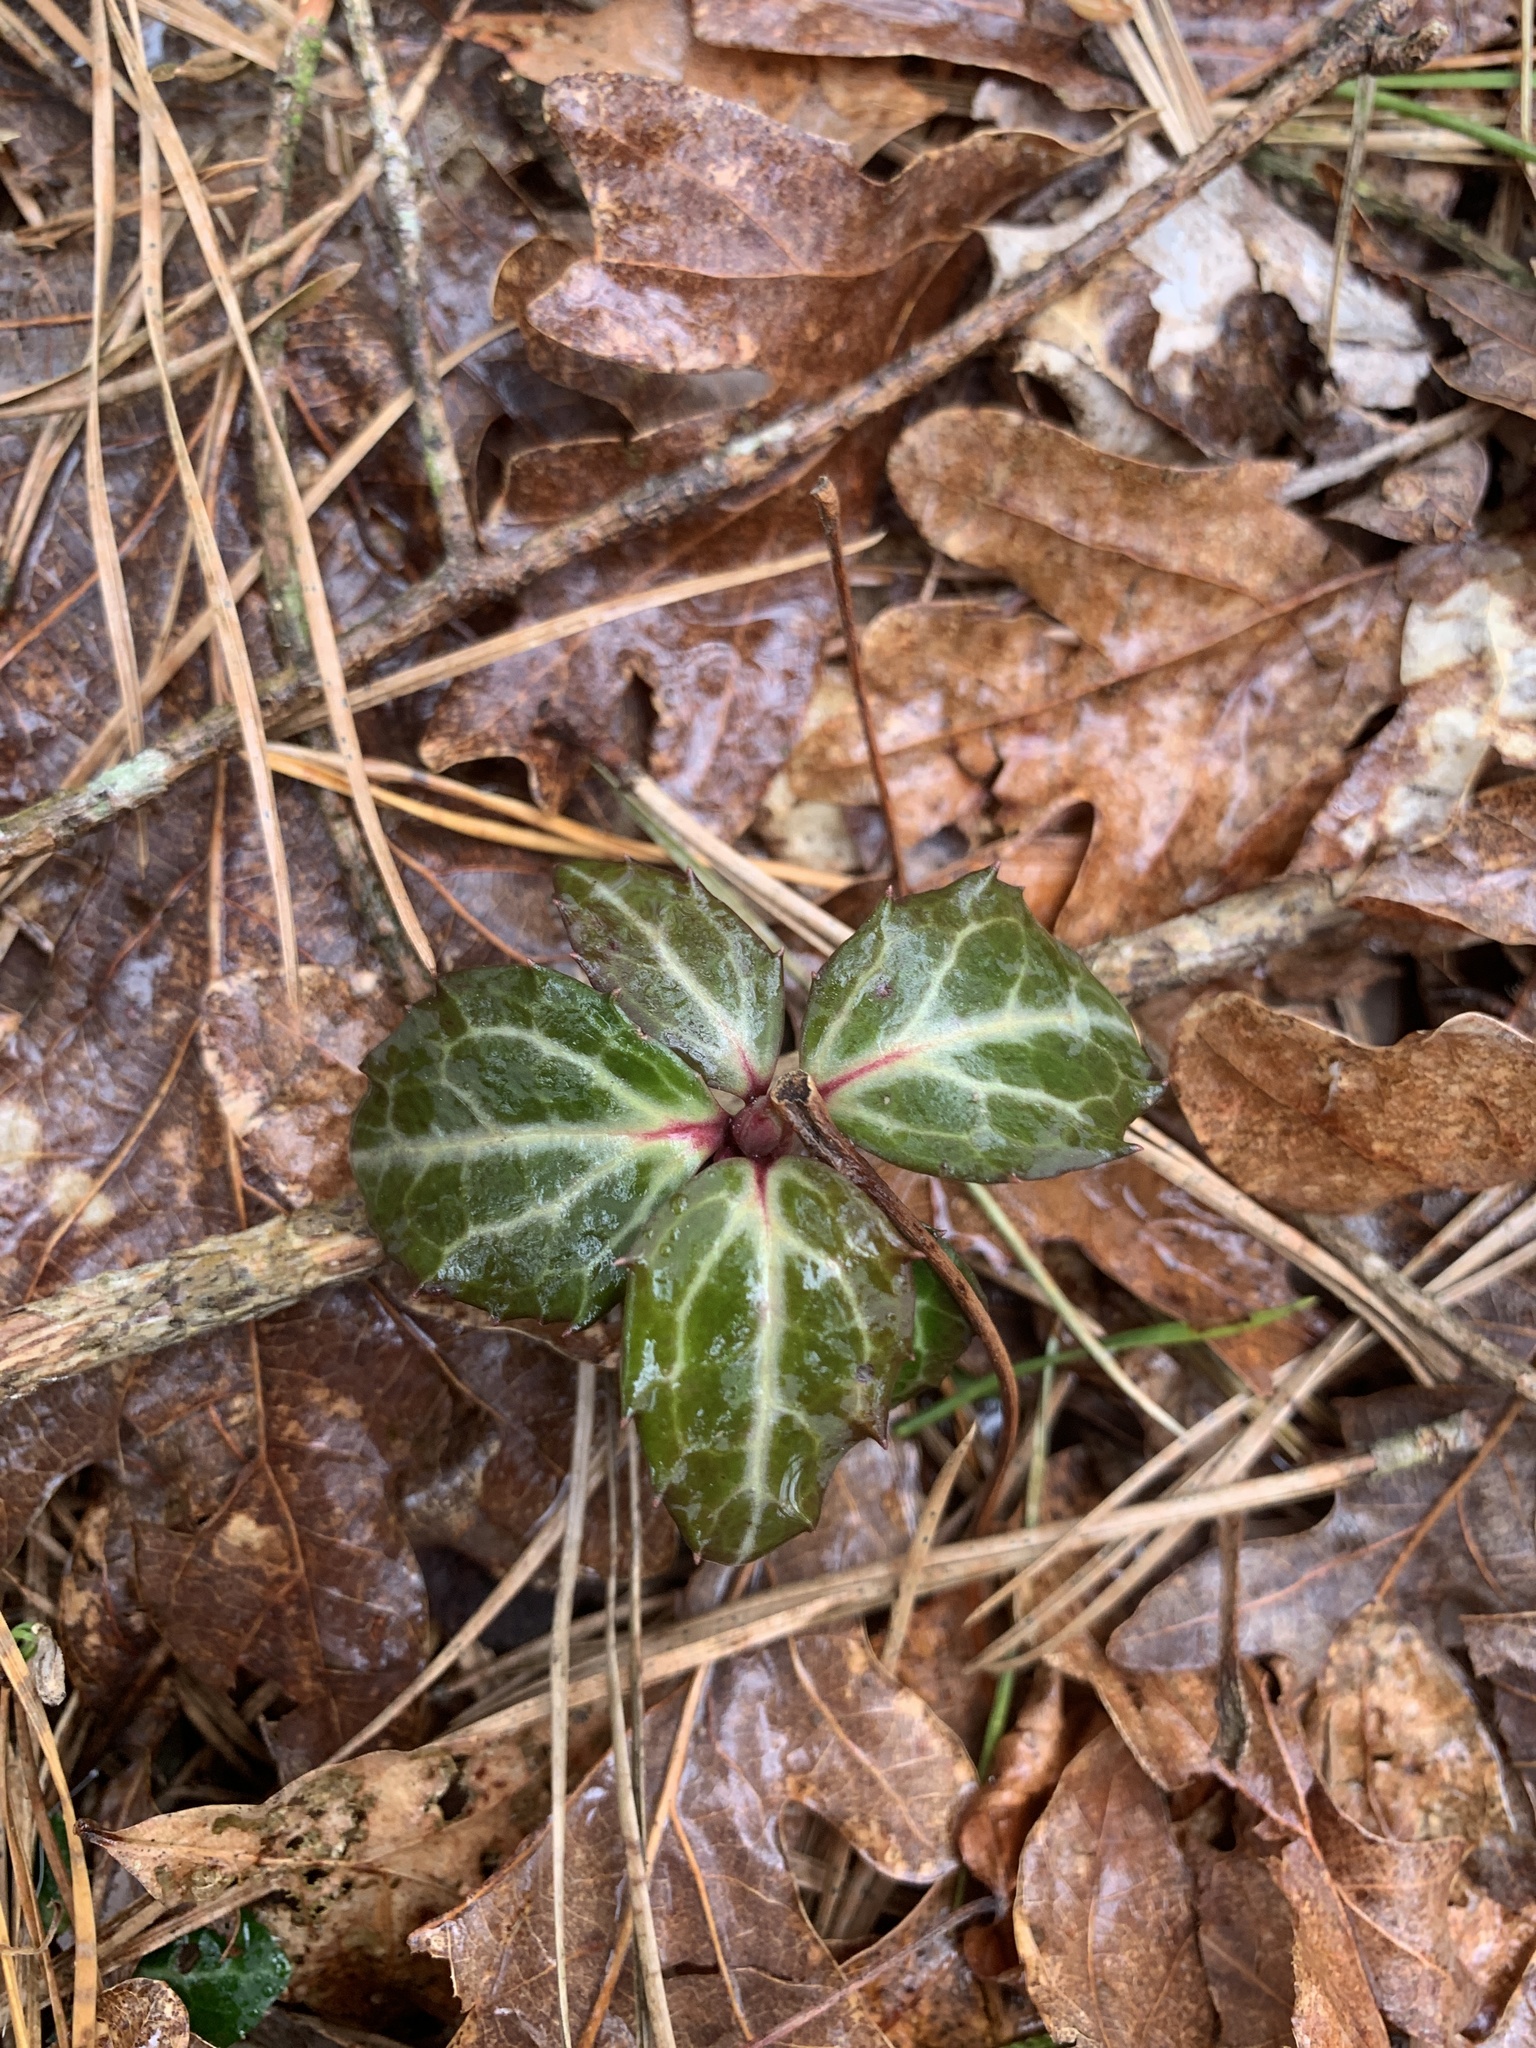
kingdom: Plantae
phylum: Tracheophyta
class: Magnoliopsida
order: Ericales
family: Ericaceae
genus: Chimaphila
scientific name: Chimaphila maculata
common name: Spotted pipsissewa
